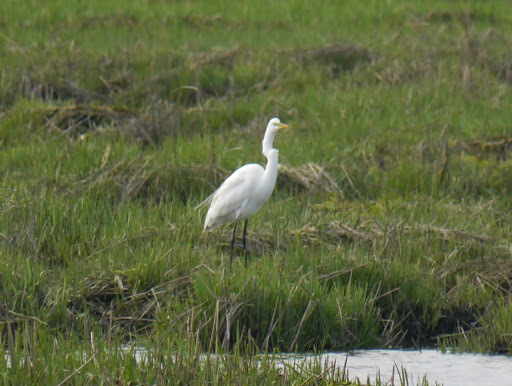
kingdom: Animalia
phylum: Chordata
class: Aves
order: Pelecaniformes
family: Ardeidae
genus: Ardea
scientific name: Ardea alba
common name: Great egret
